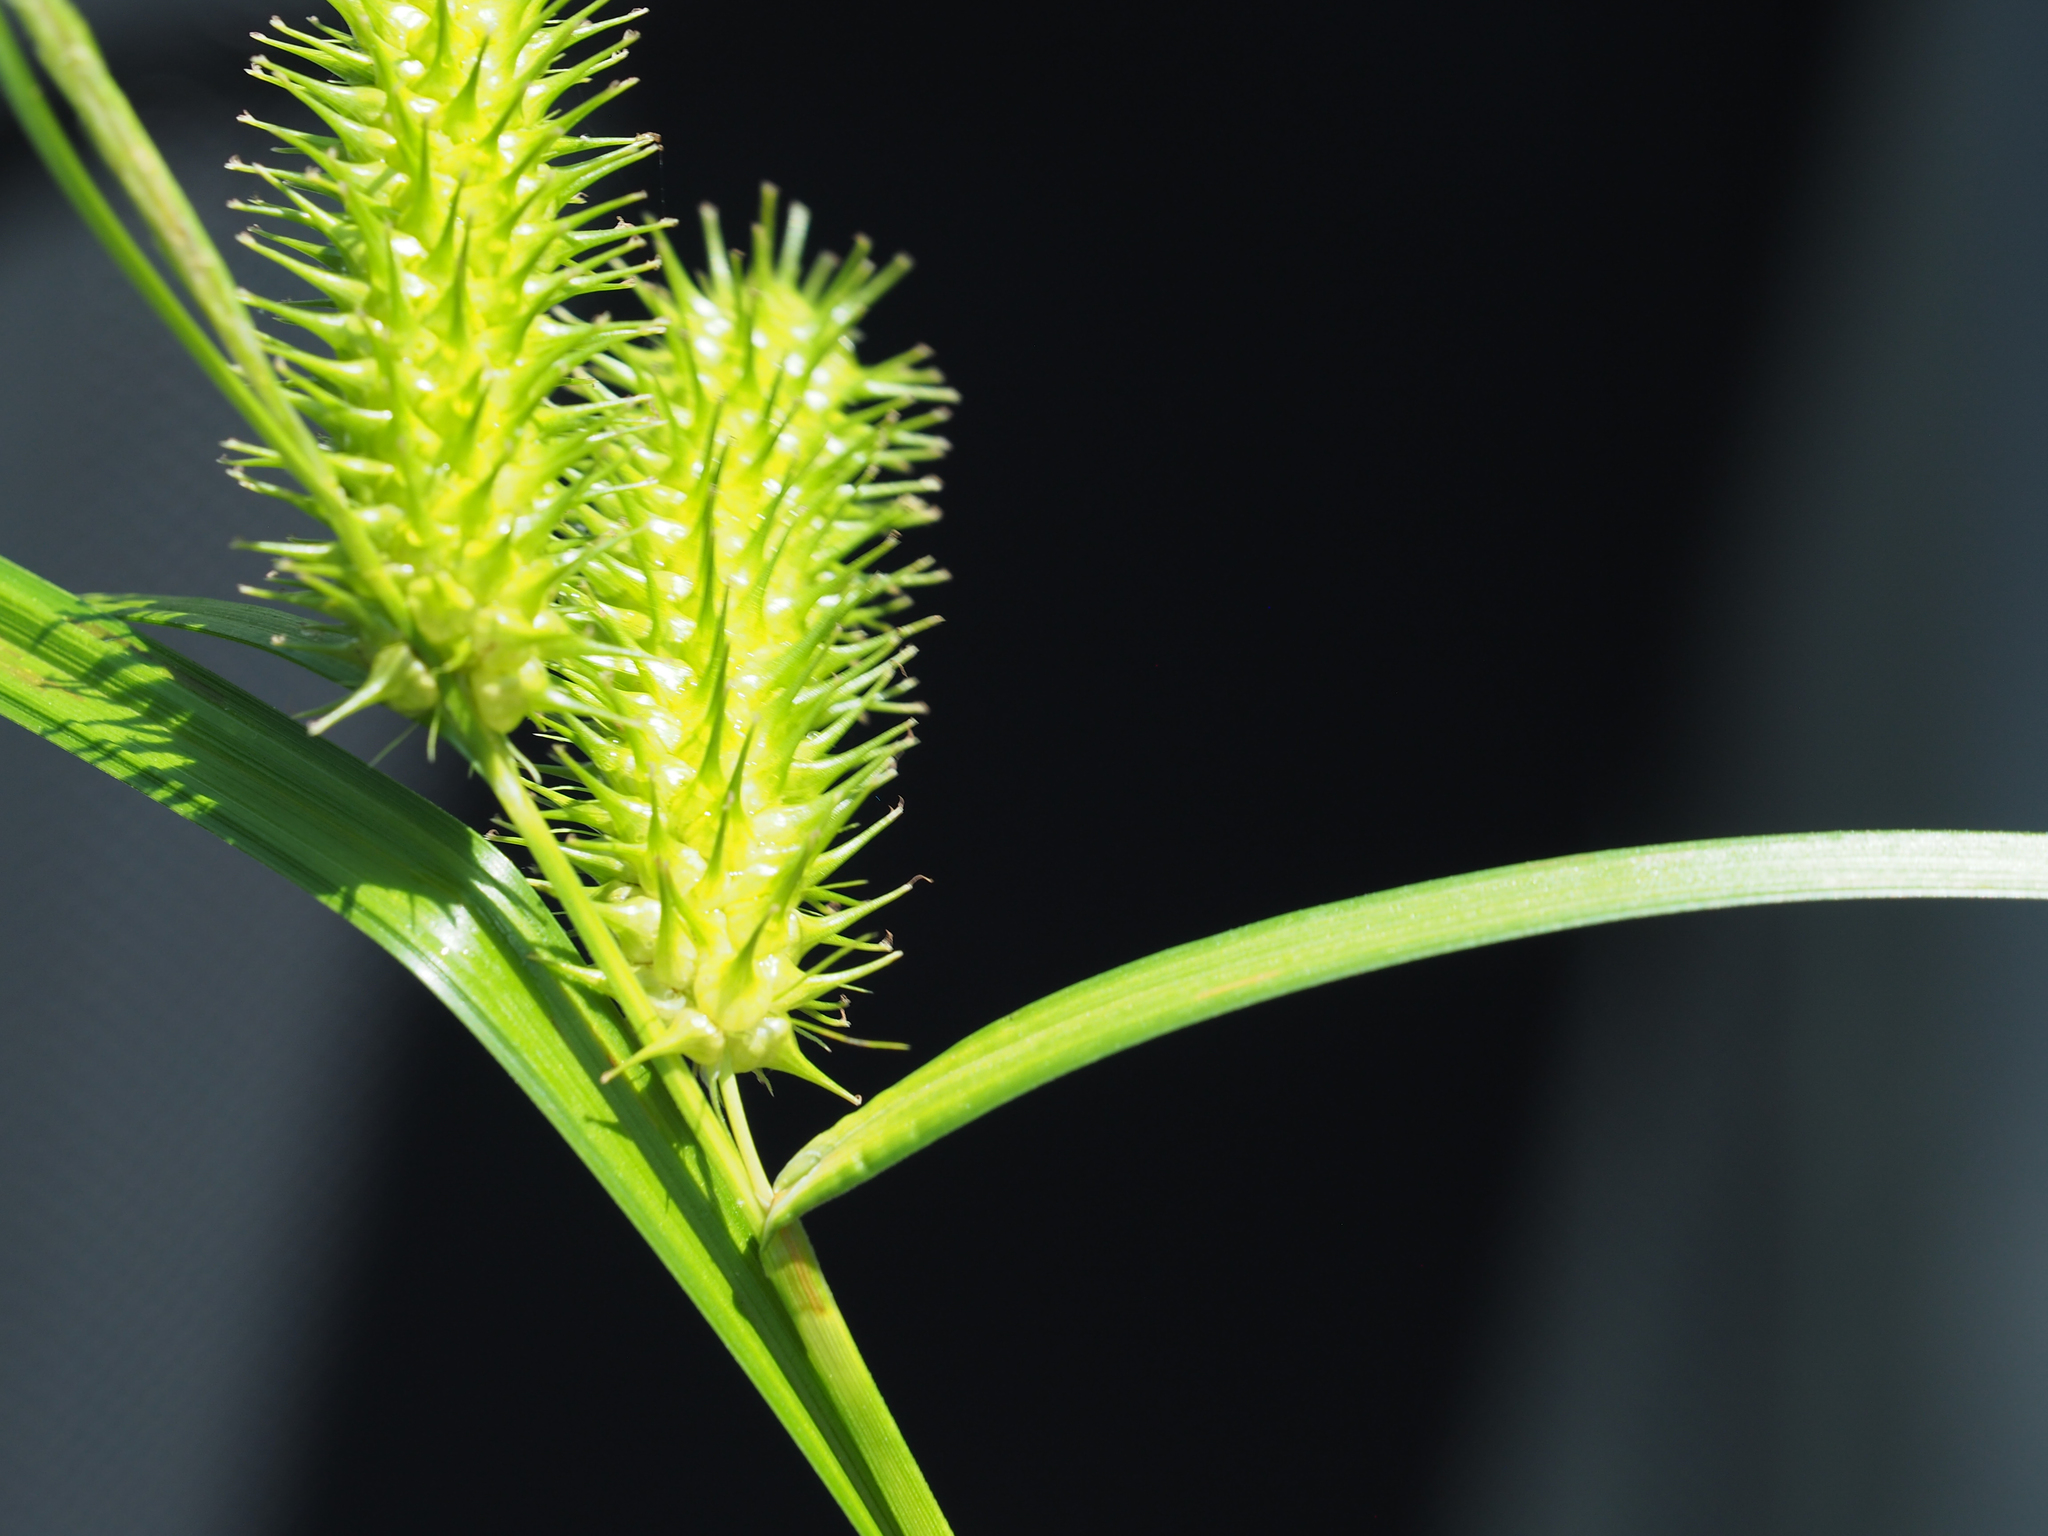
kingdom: Plantae
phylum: Tracheophyta
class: Liliopsida
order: Poales
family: Cyperaceae
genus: Carex
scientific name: Carex lurida
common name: Sallow sedge
